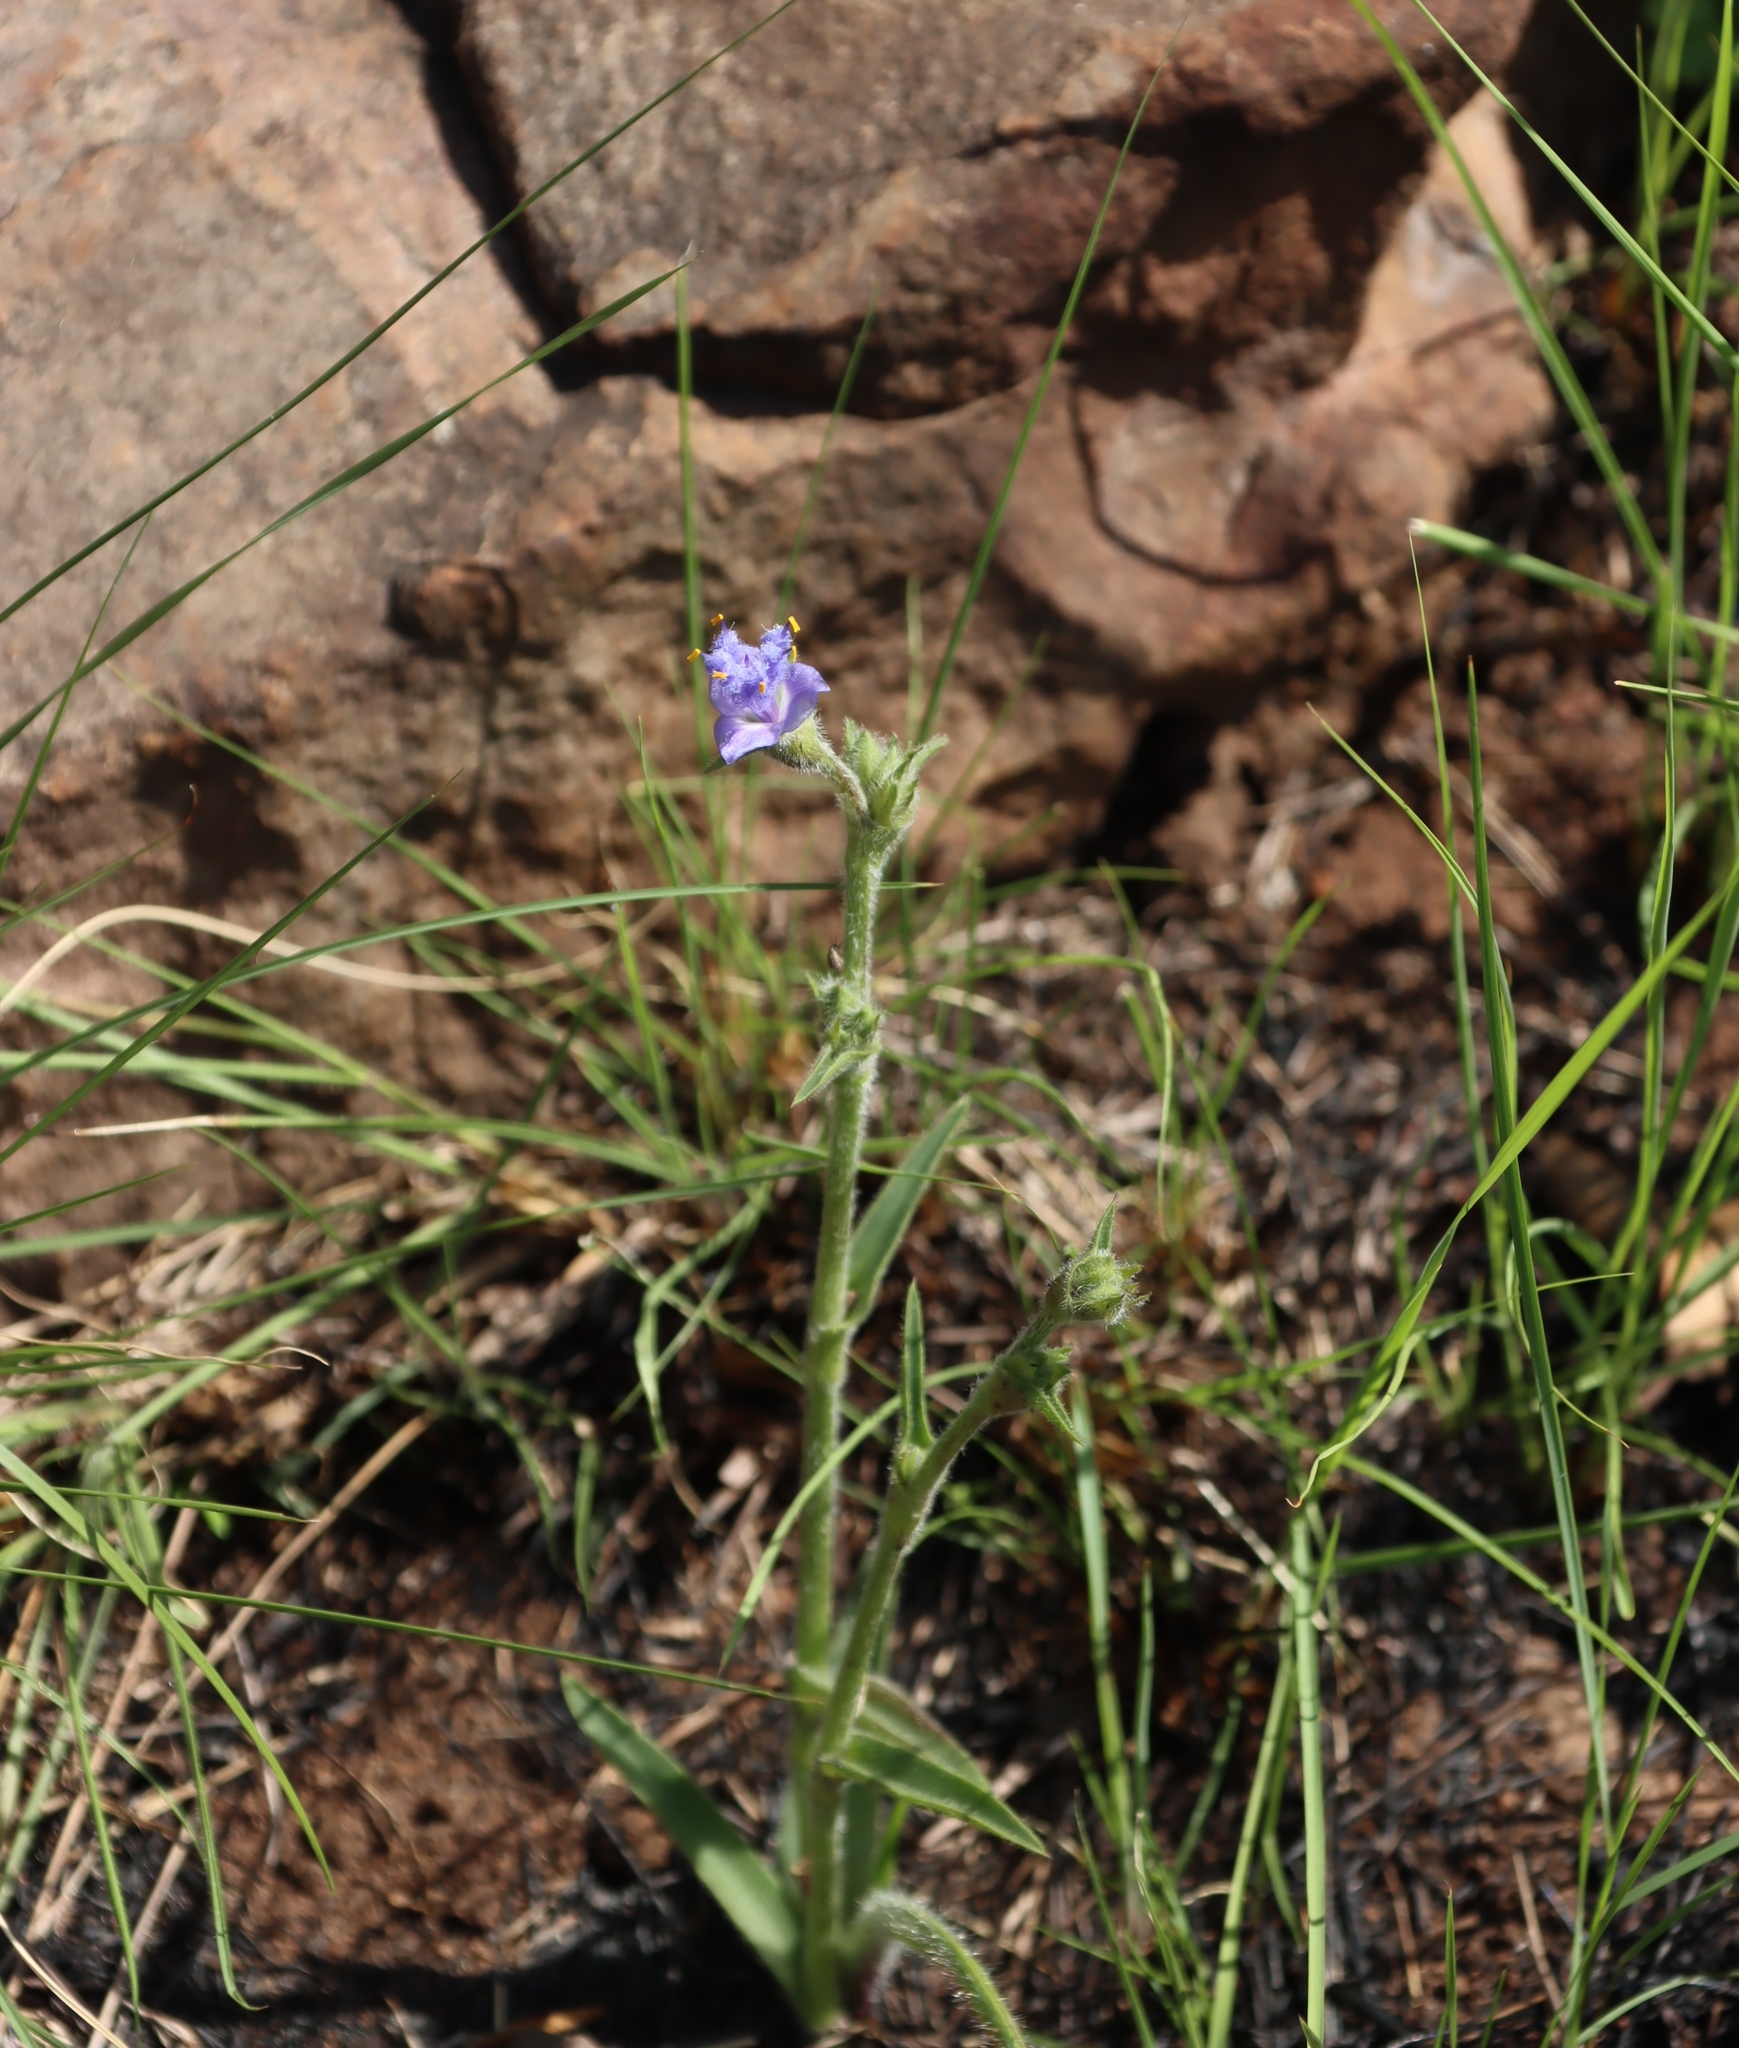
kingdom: Plantae
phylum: Tracheophyta
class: Liliopsida
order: Commelinales
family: Commelinaceae
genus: Cyanotis
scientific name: Cyanotis speciosa
